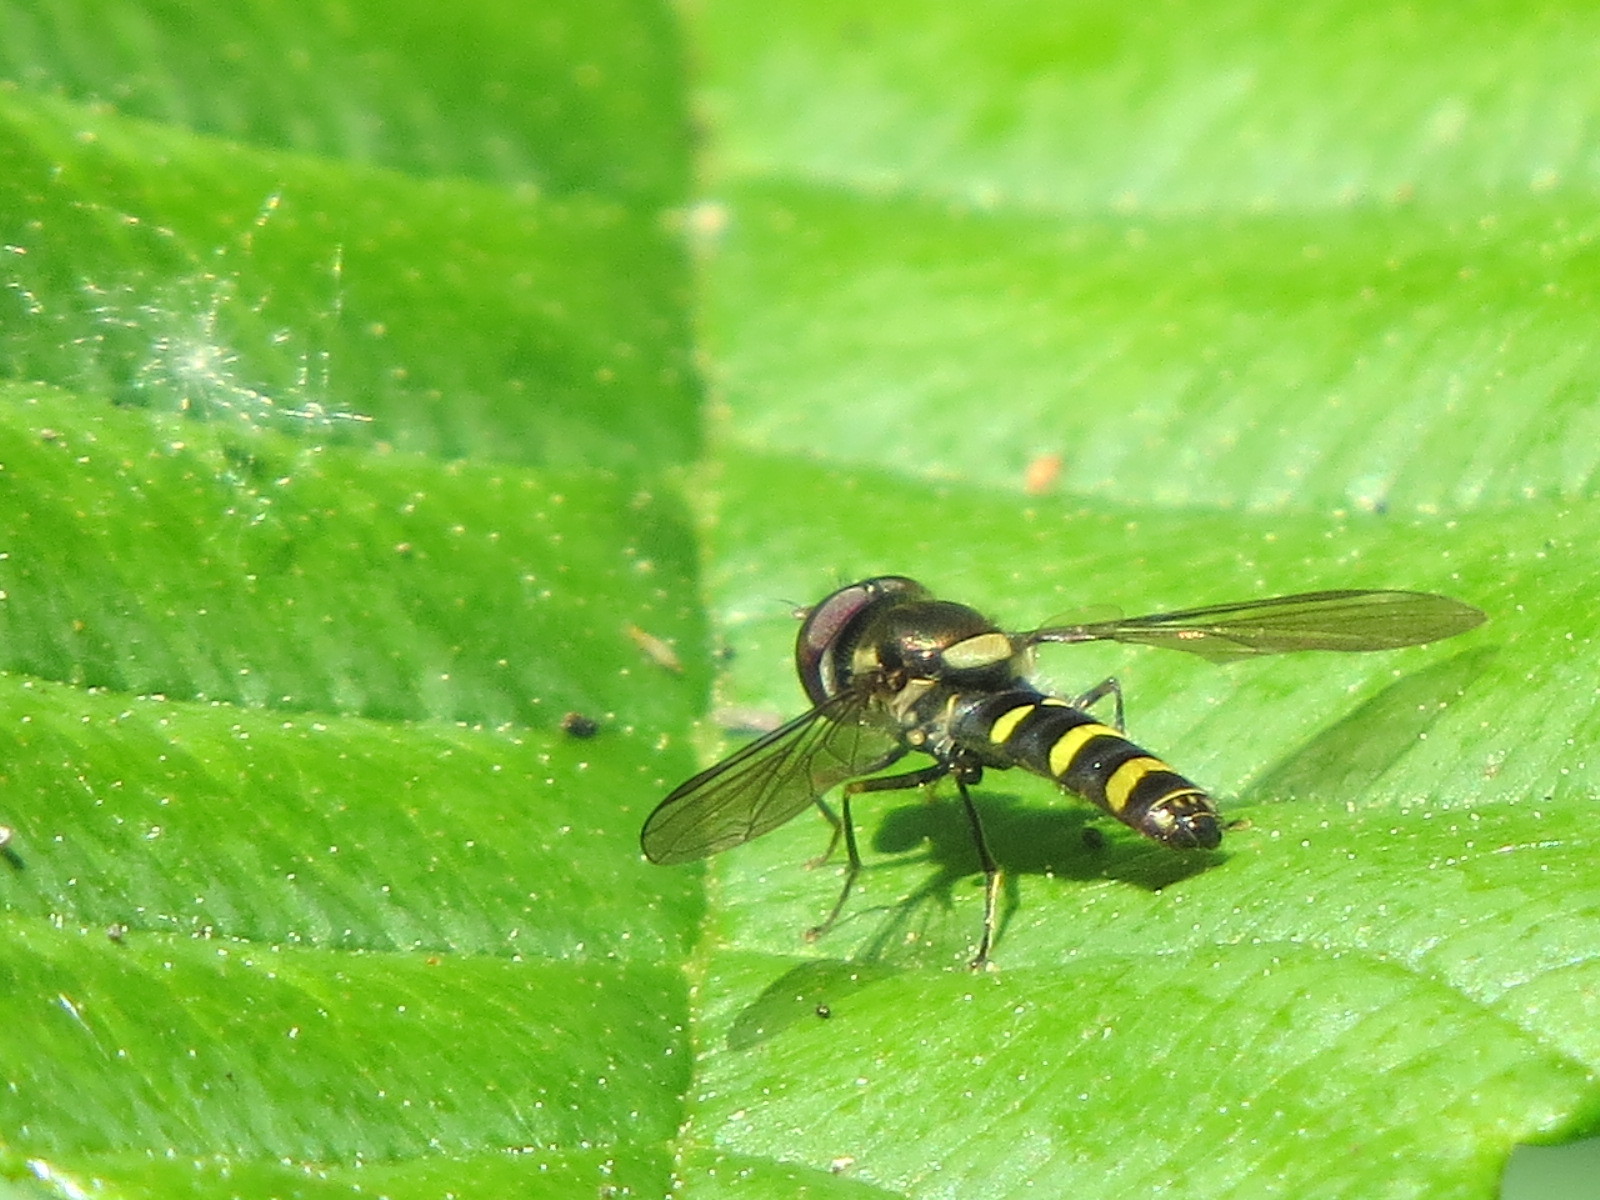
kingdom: Animalia
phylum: Arthropoda
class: Insecta
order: Diptera
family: Syrphidae
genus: Fazia
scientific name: Fazia micrura
